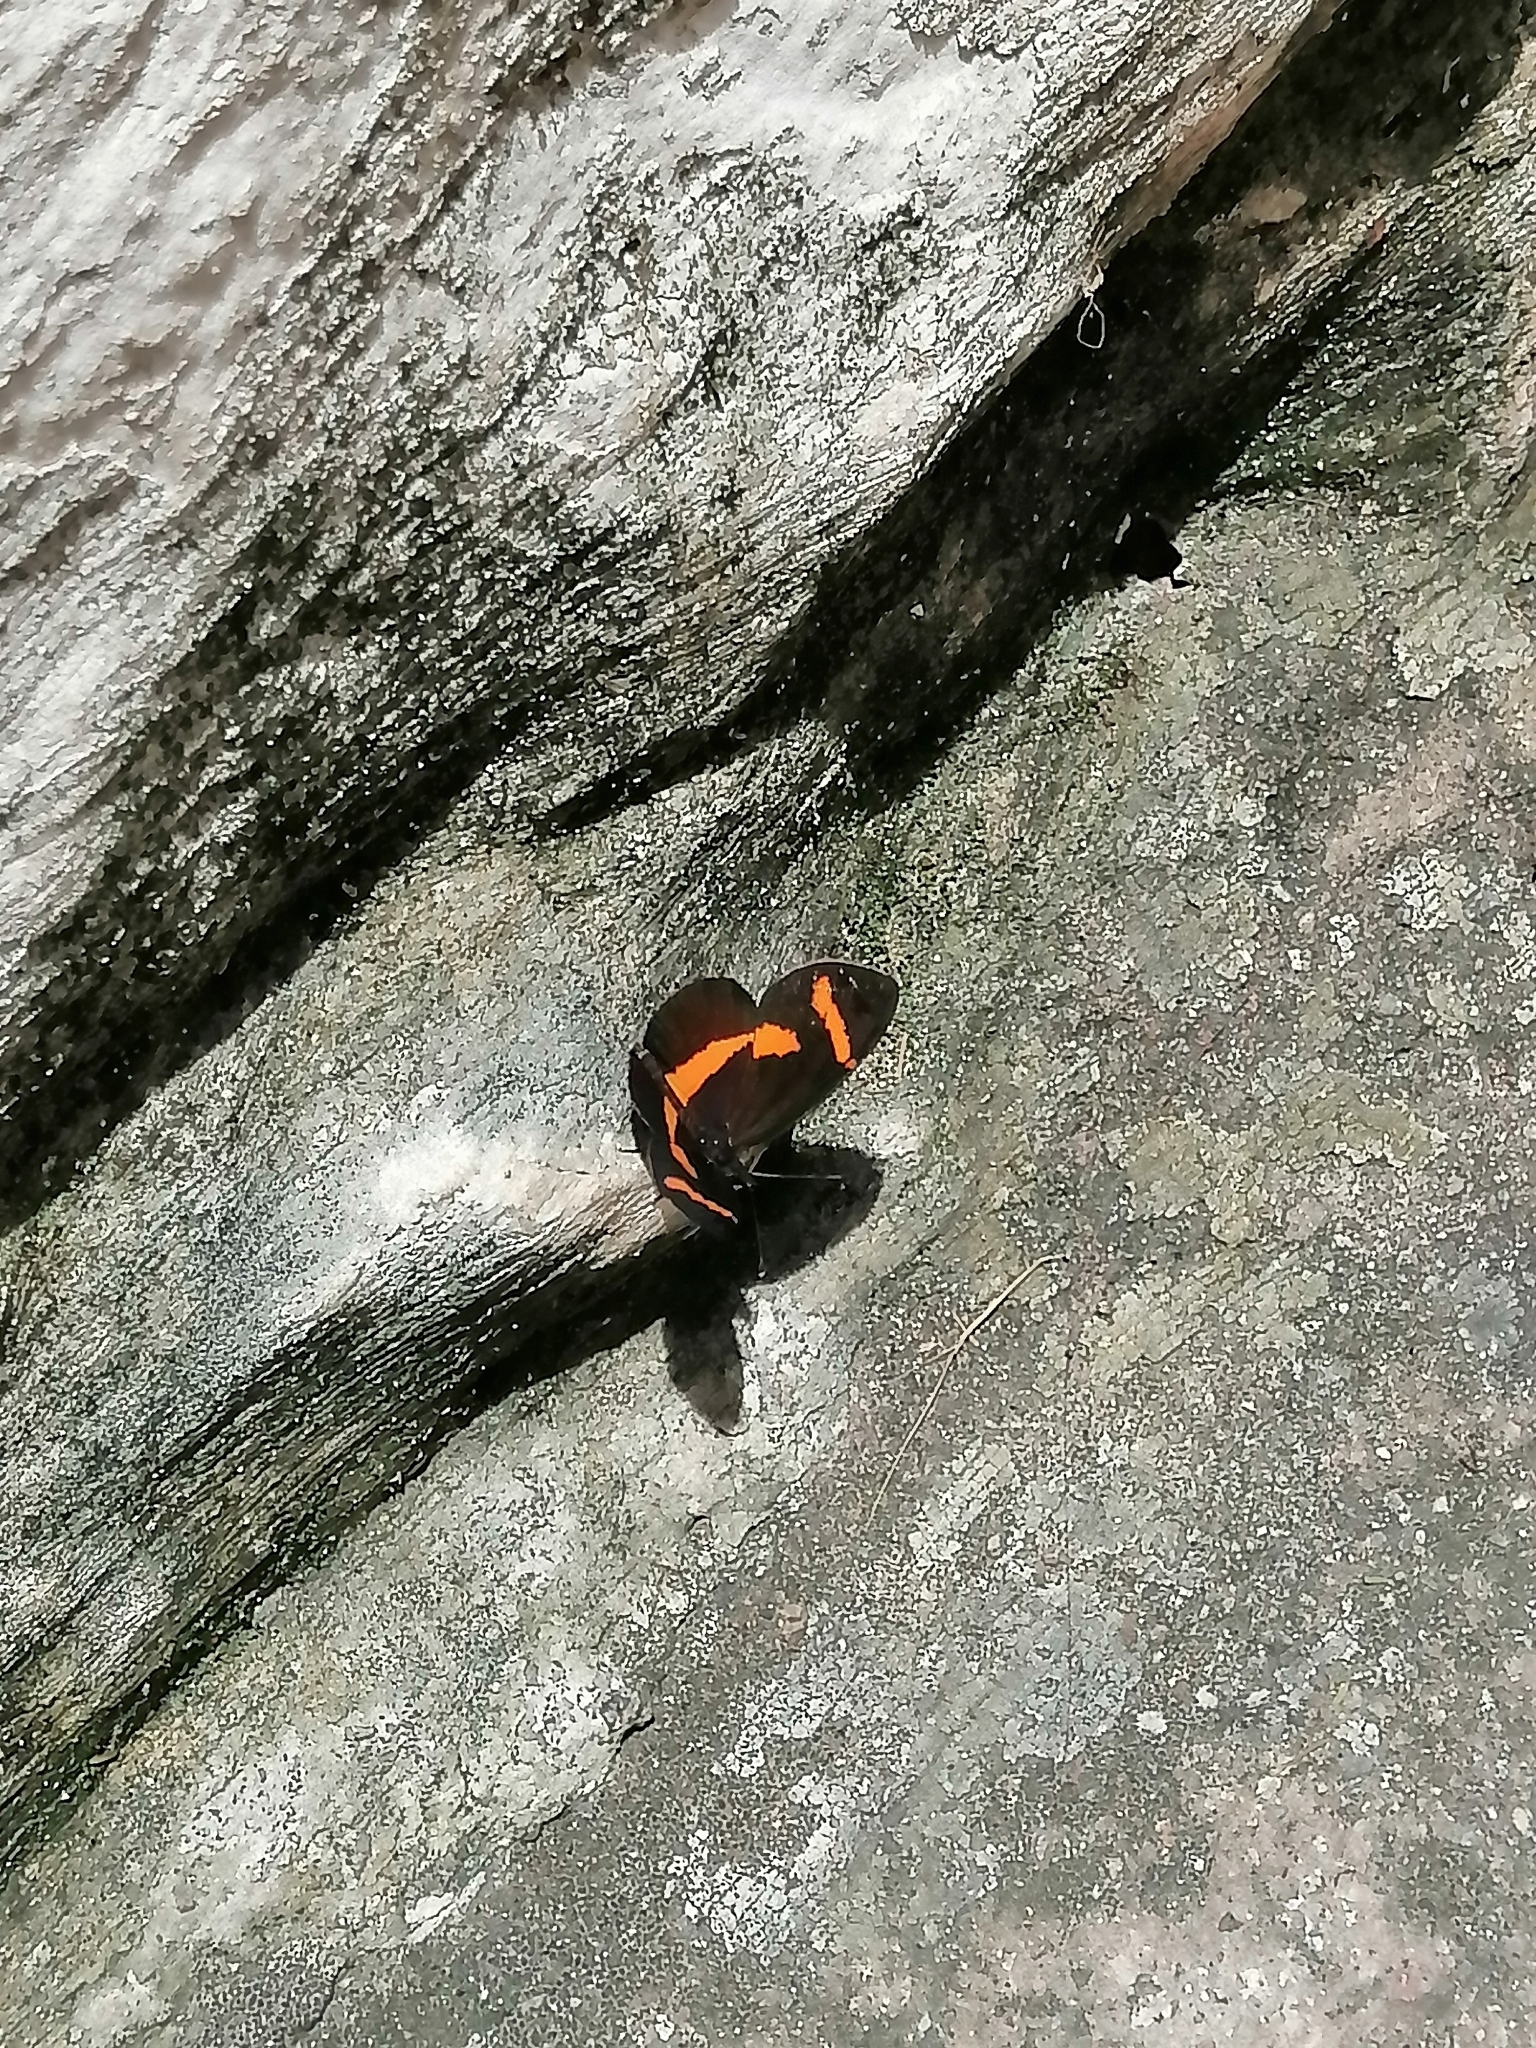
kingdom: Animalia
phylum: Arthropoda
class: Insecta
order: Lepidoptera
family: Nymphalidae
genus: Microtia
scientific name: Microtia elva
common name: Elf
